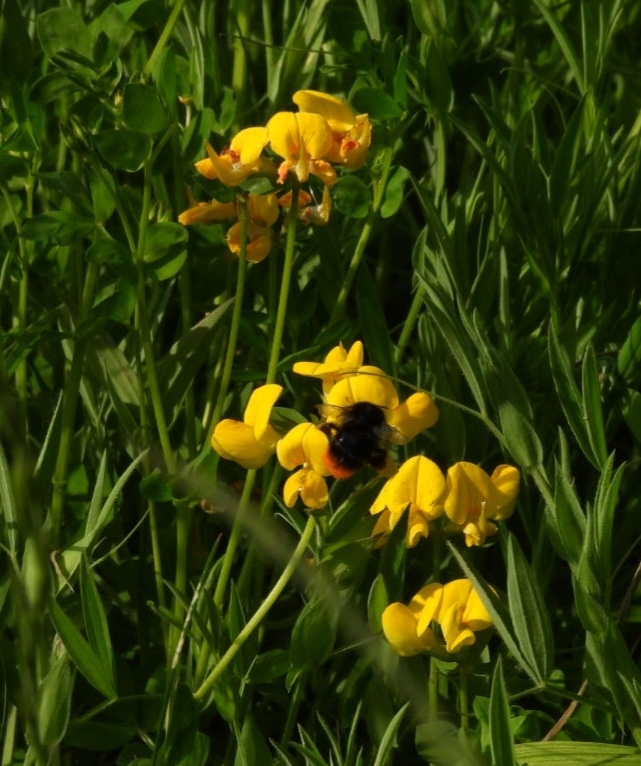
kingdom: Animalia
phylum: Arthropoda
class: Insecta
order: Hymenoptera
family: Apidae
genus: Bombus
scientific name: Bombus lapidarius
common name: Large red-tailed humble-bee
